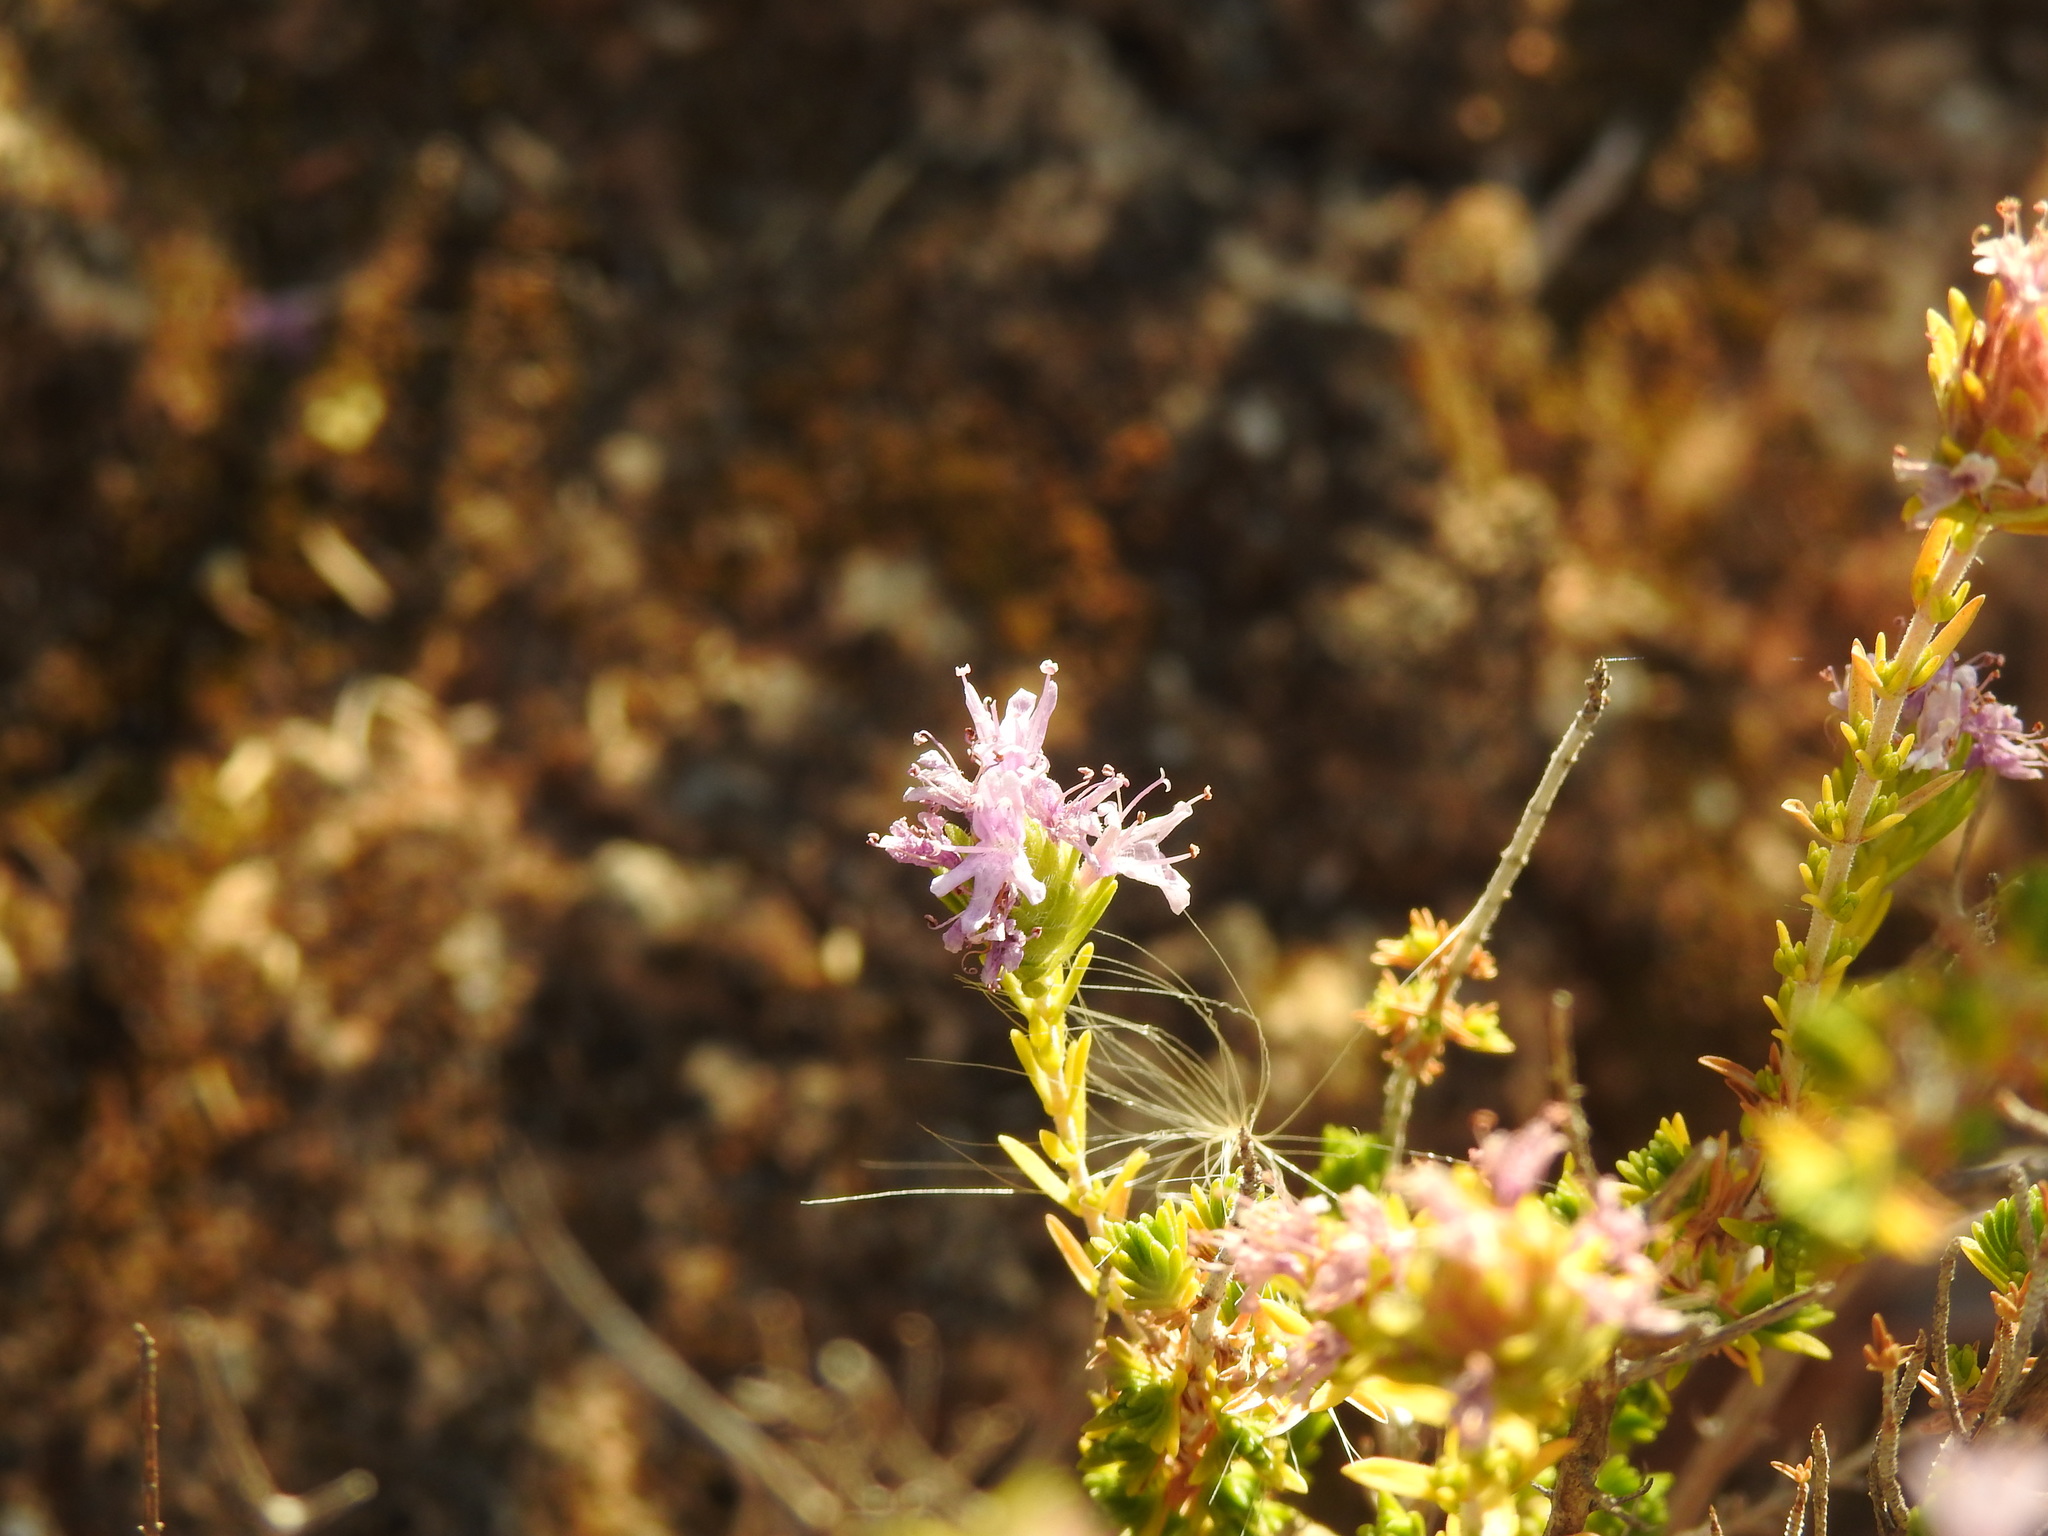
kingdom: Plantae
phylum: Tracheophyta
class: Magnoliopsida
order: Lamiales
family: Lamiaceae
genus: Thymbra
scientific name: Thymbra capitata
